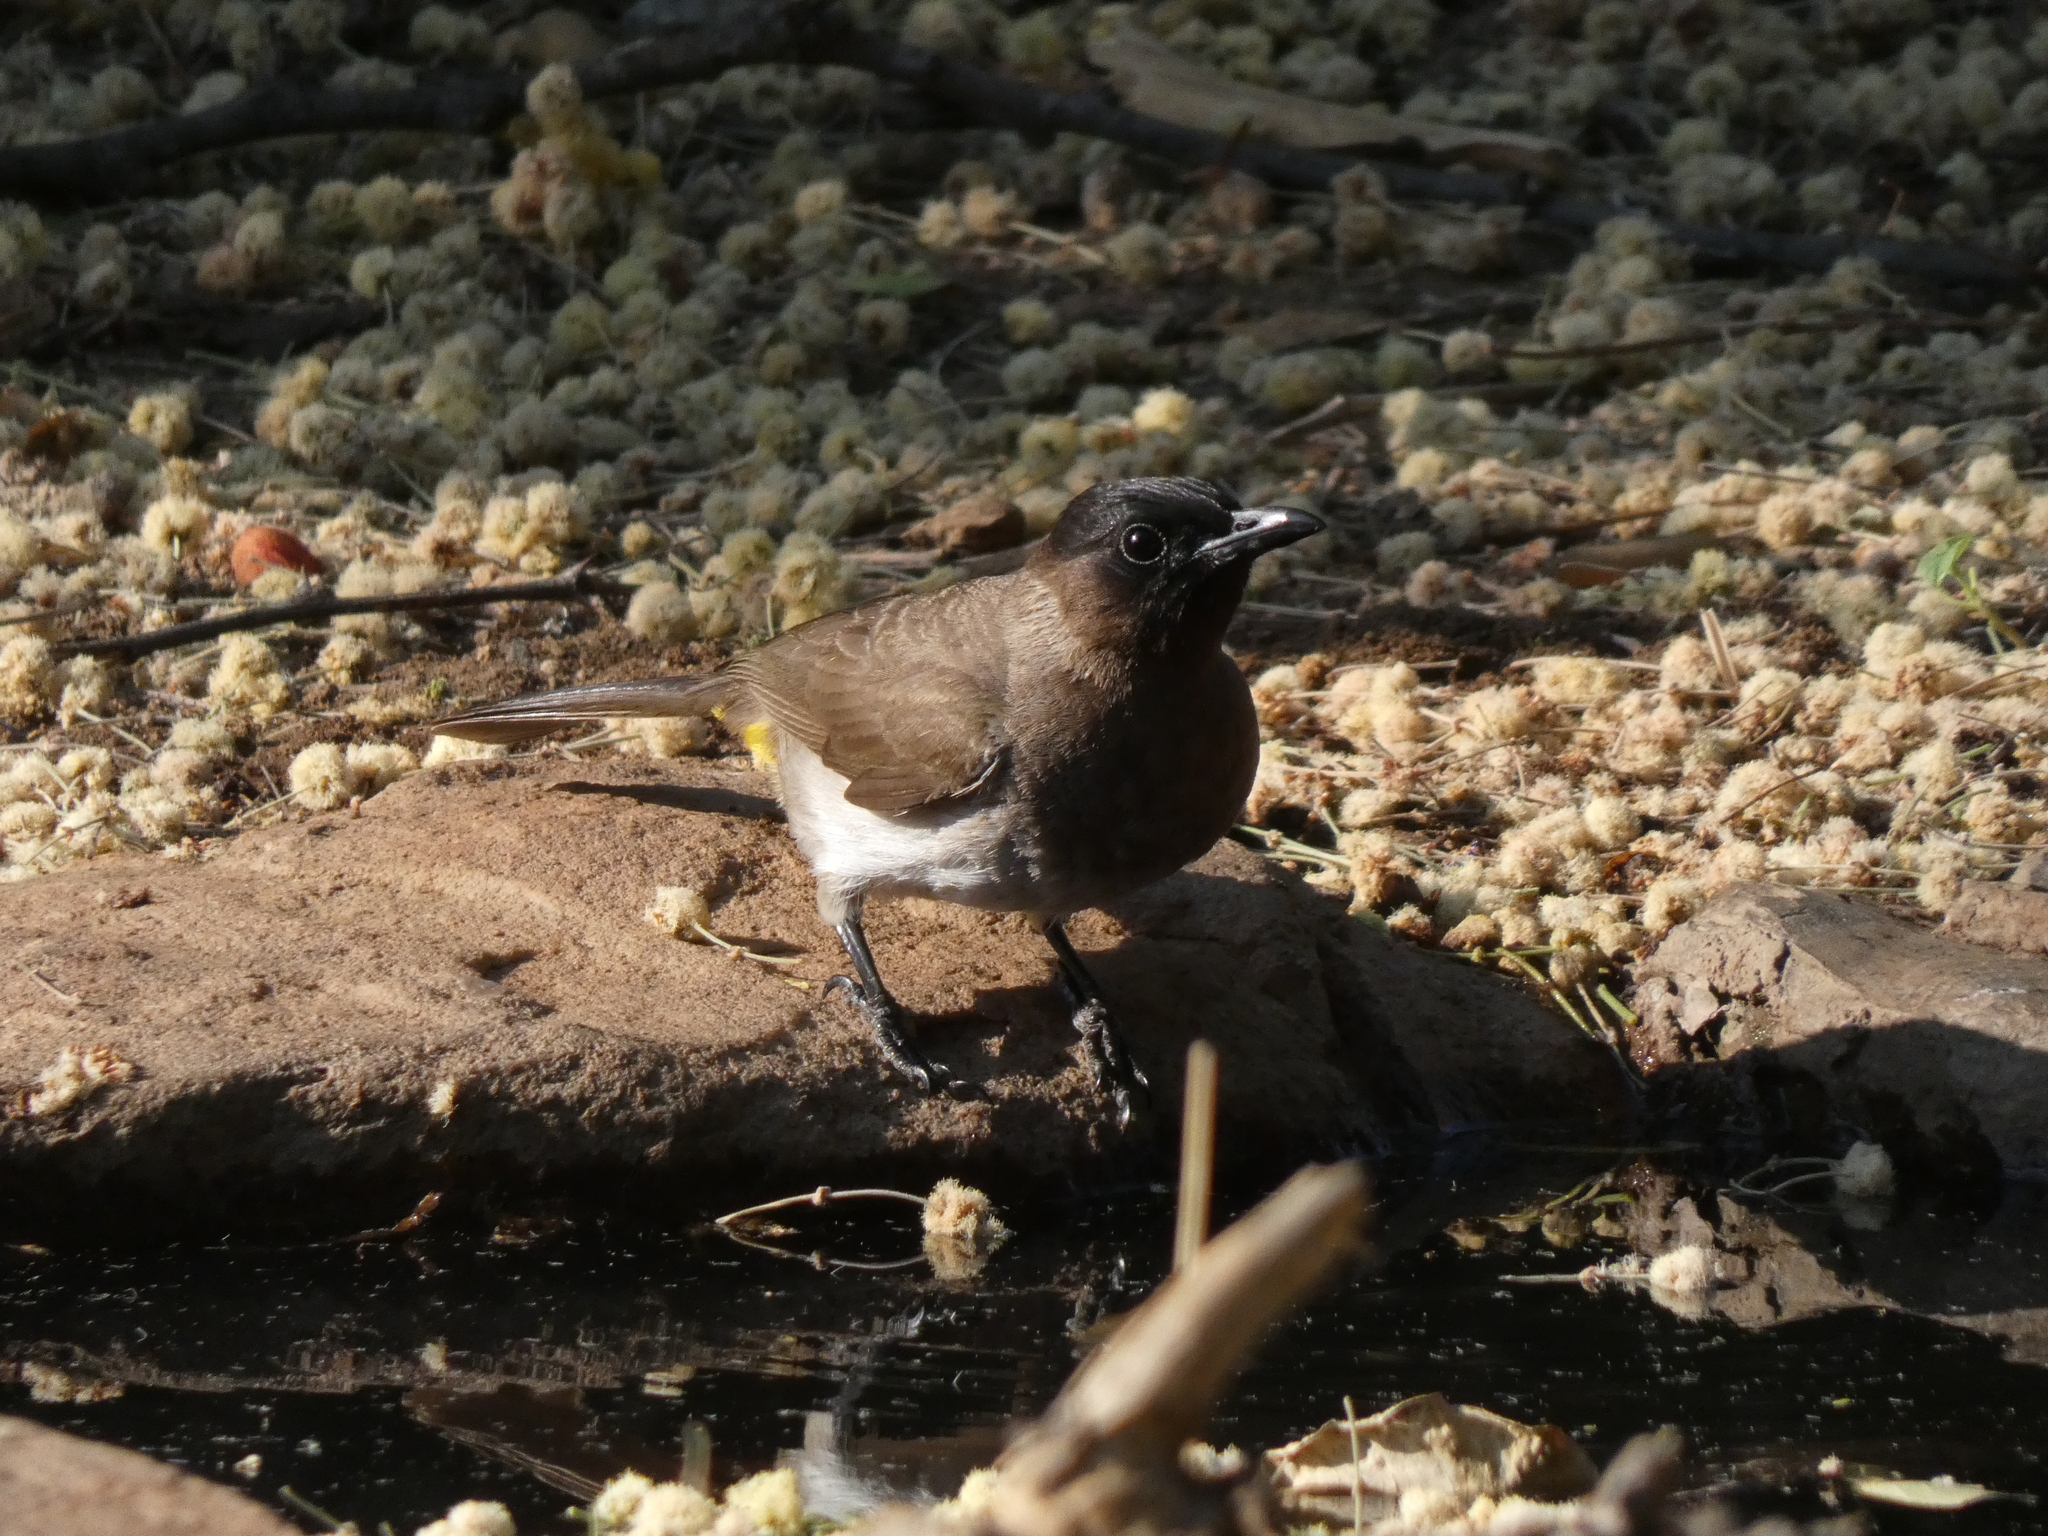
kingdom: Animalia
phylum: Chordata
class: Aves
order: Passeriformes
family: Pycnonotidae
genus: Pycnonotus
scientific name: Pycnonotus barbatus
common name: Common bulbul
